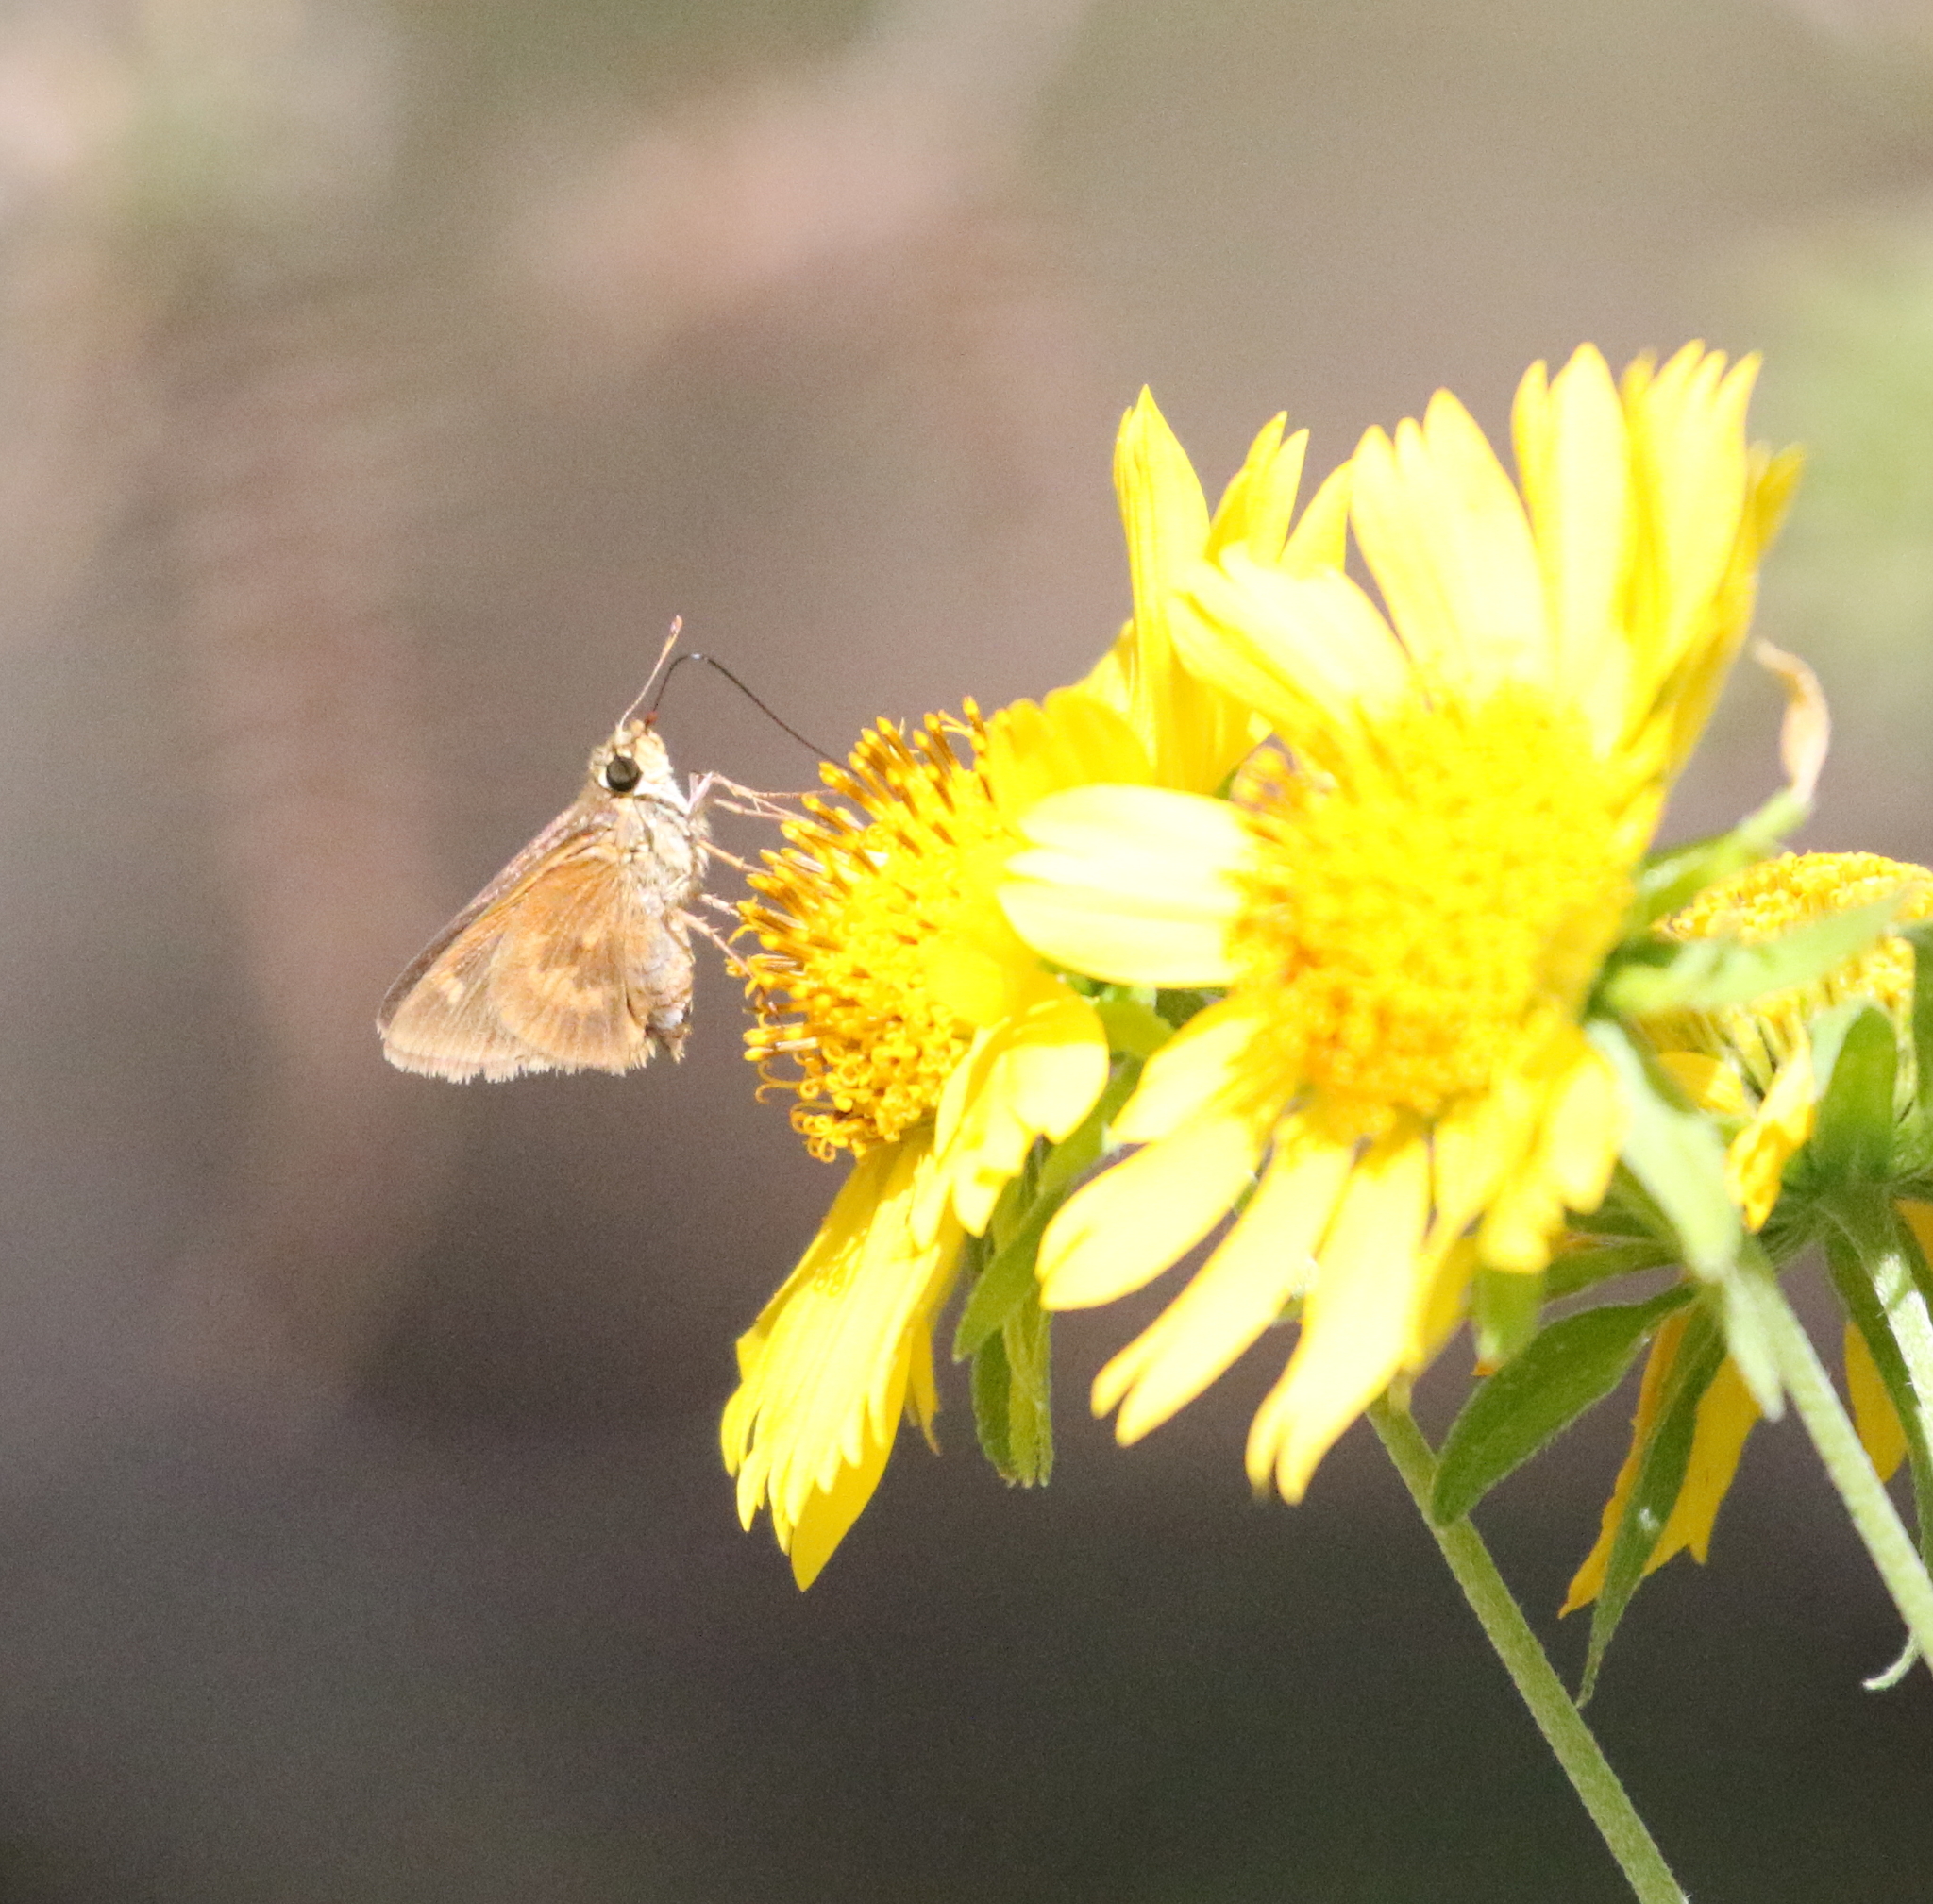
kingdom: Animalia
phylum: Arthropoda
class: Insecta
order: Lepidoptera
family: Hesperiidae
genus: Polites
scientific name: Polites otho
